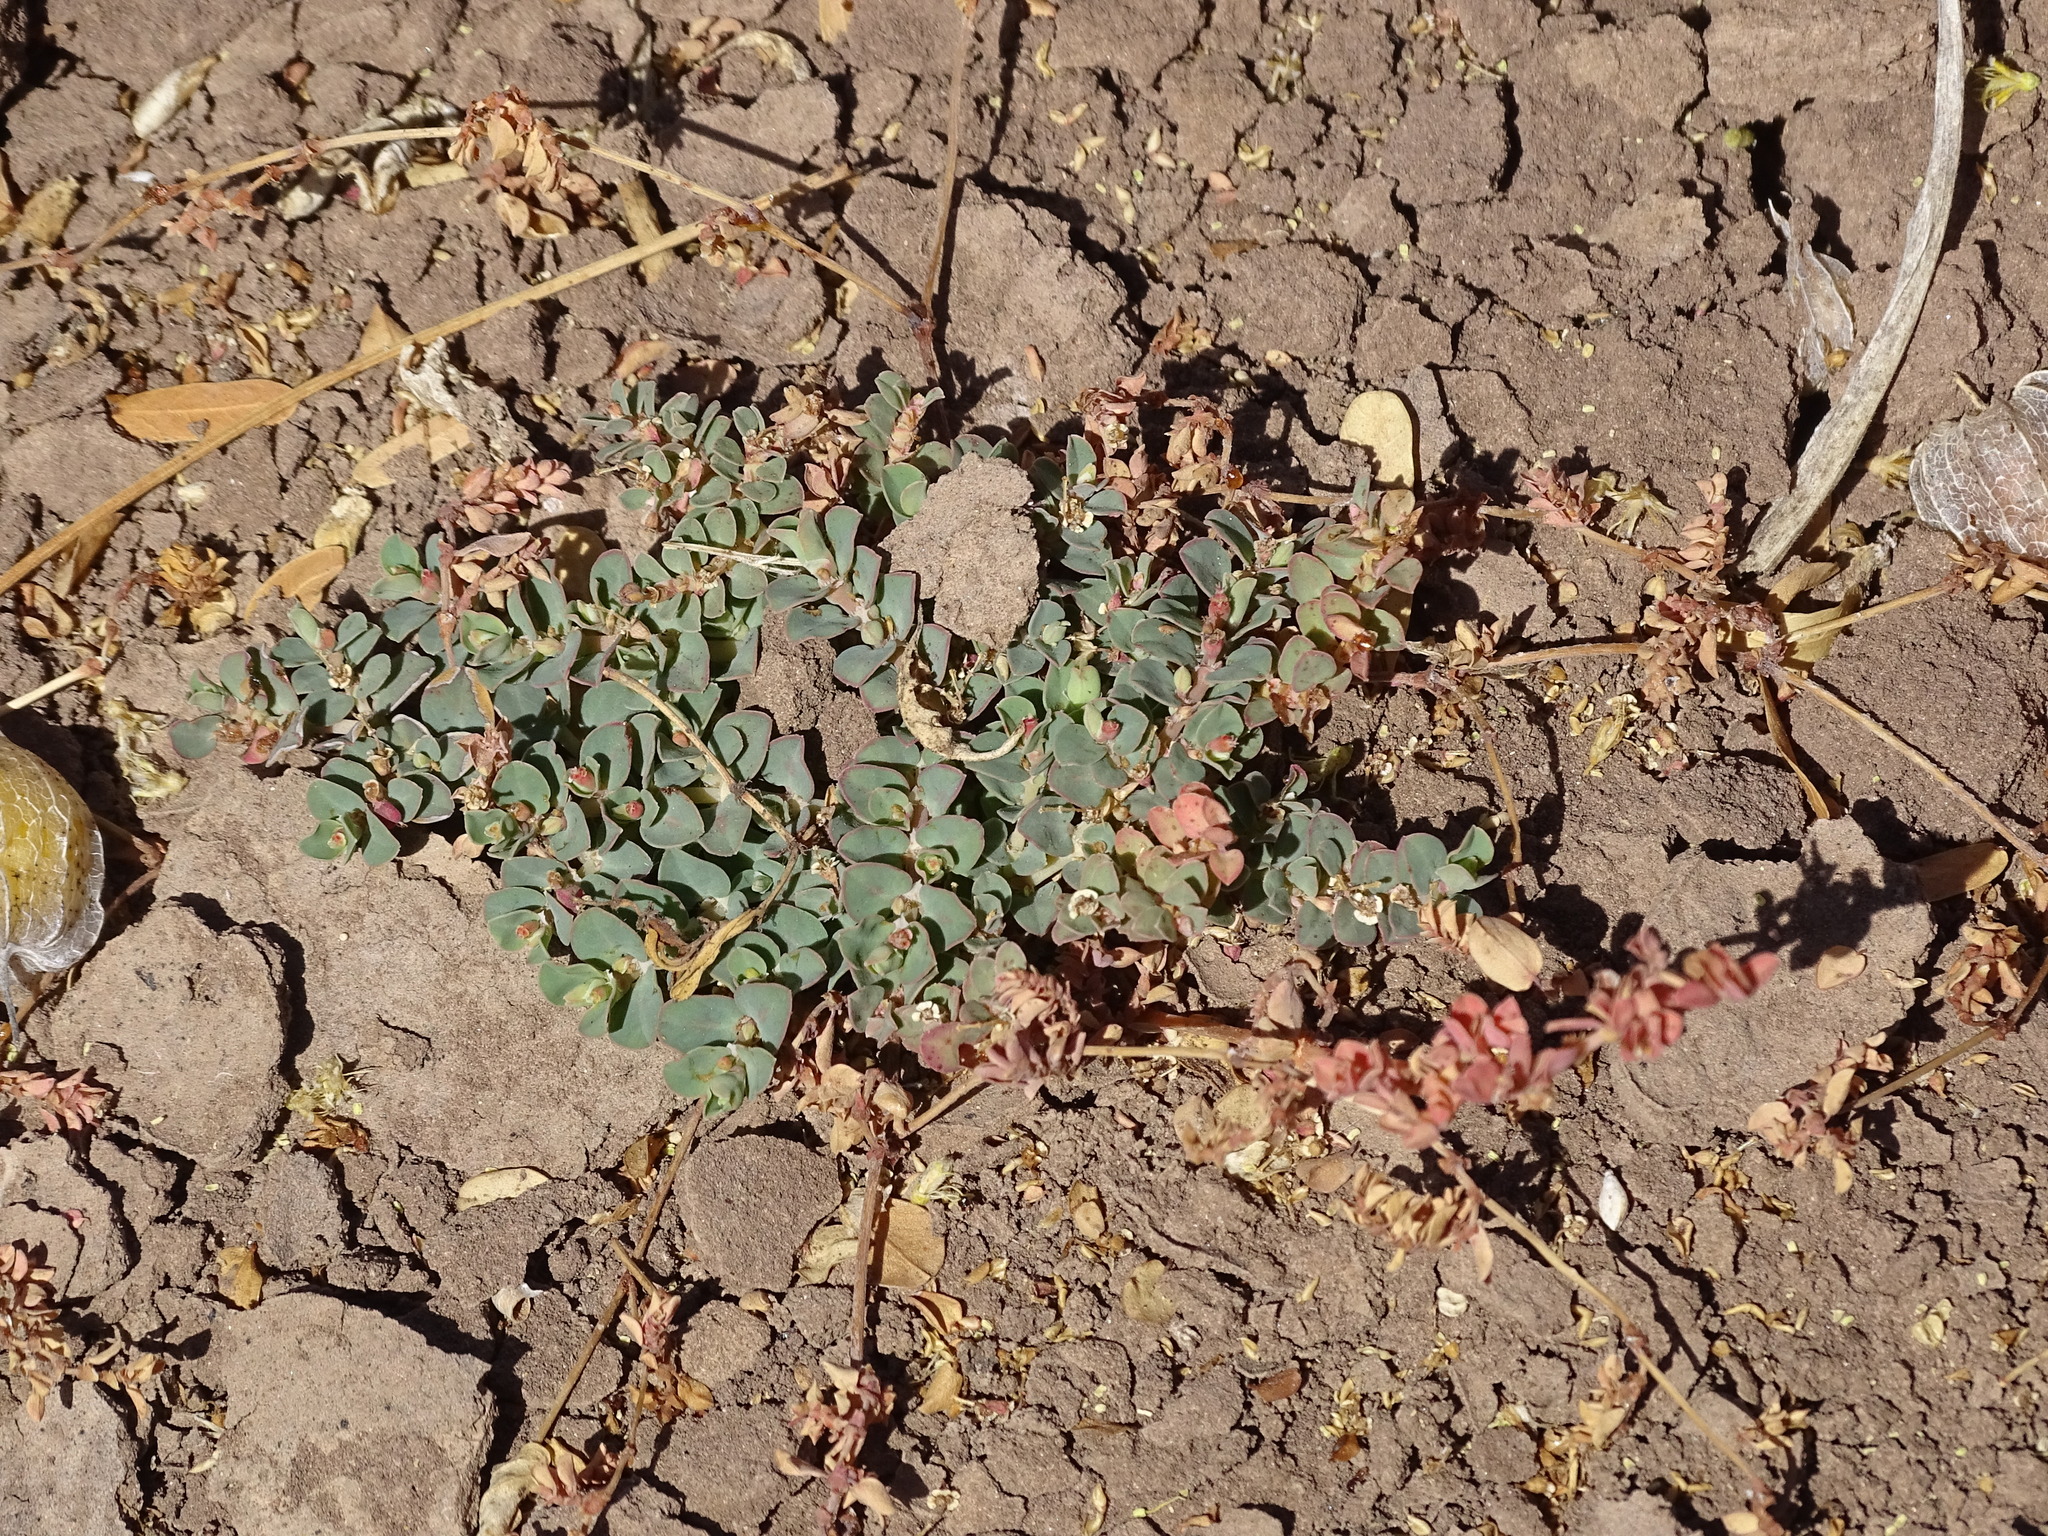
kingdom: Plantae
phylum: Tracheophyta
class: Magnoliopsida
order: Malpighiales
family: Euphorbiaceae
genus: Euphorbia
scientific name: Euphorbia albomarginata
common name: Whitemargin sandmat
